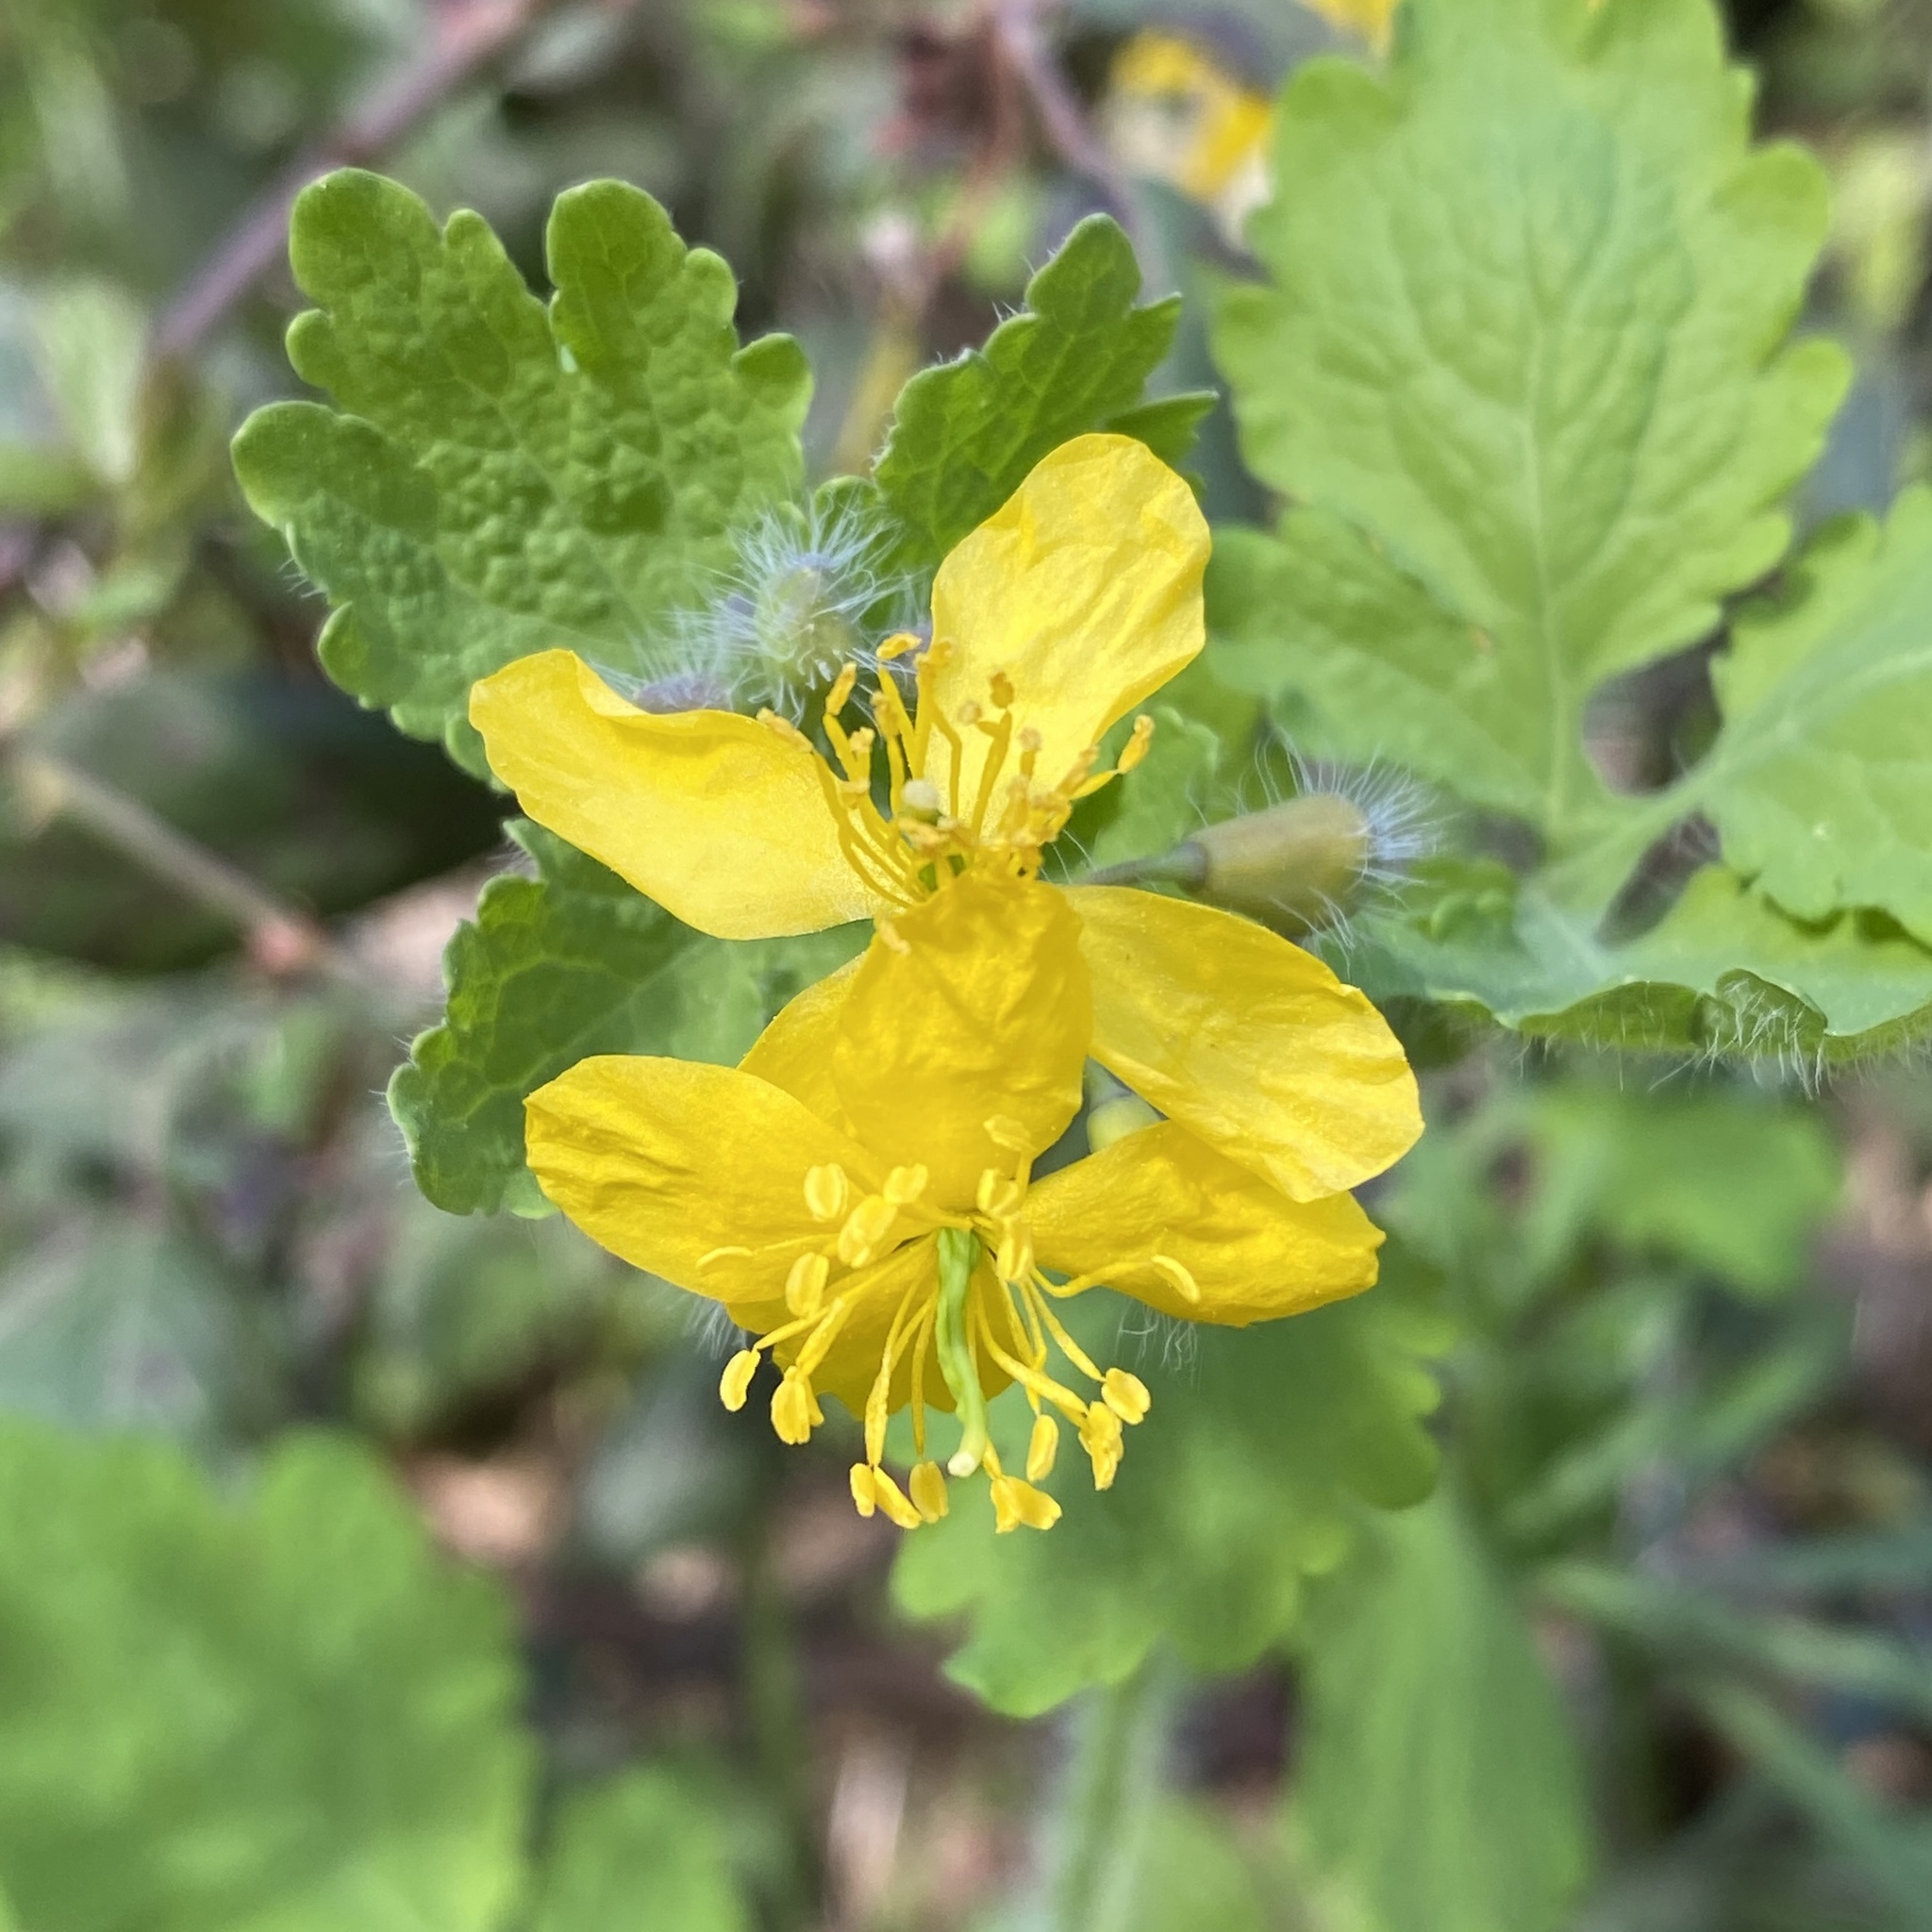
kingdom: Plantae
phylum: Tracheophyta
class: Magnoliopsida
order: Ranunculales
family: Papaveraceae
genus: Chelidonium
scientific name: Chelidonium majus
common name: Greater celandine
